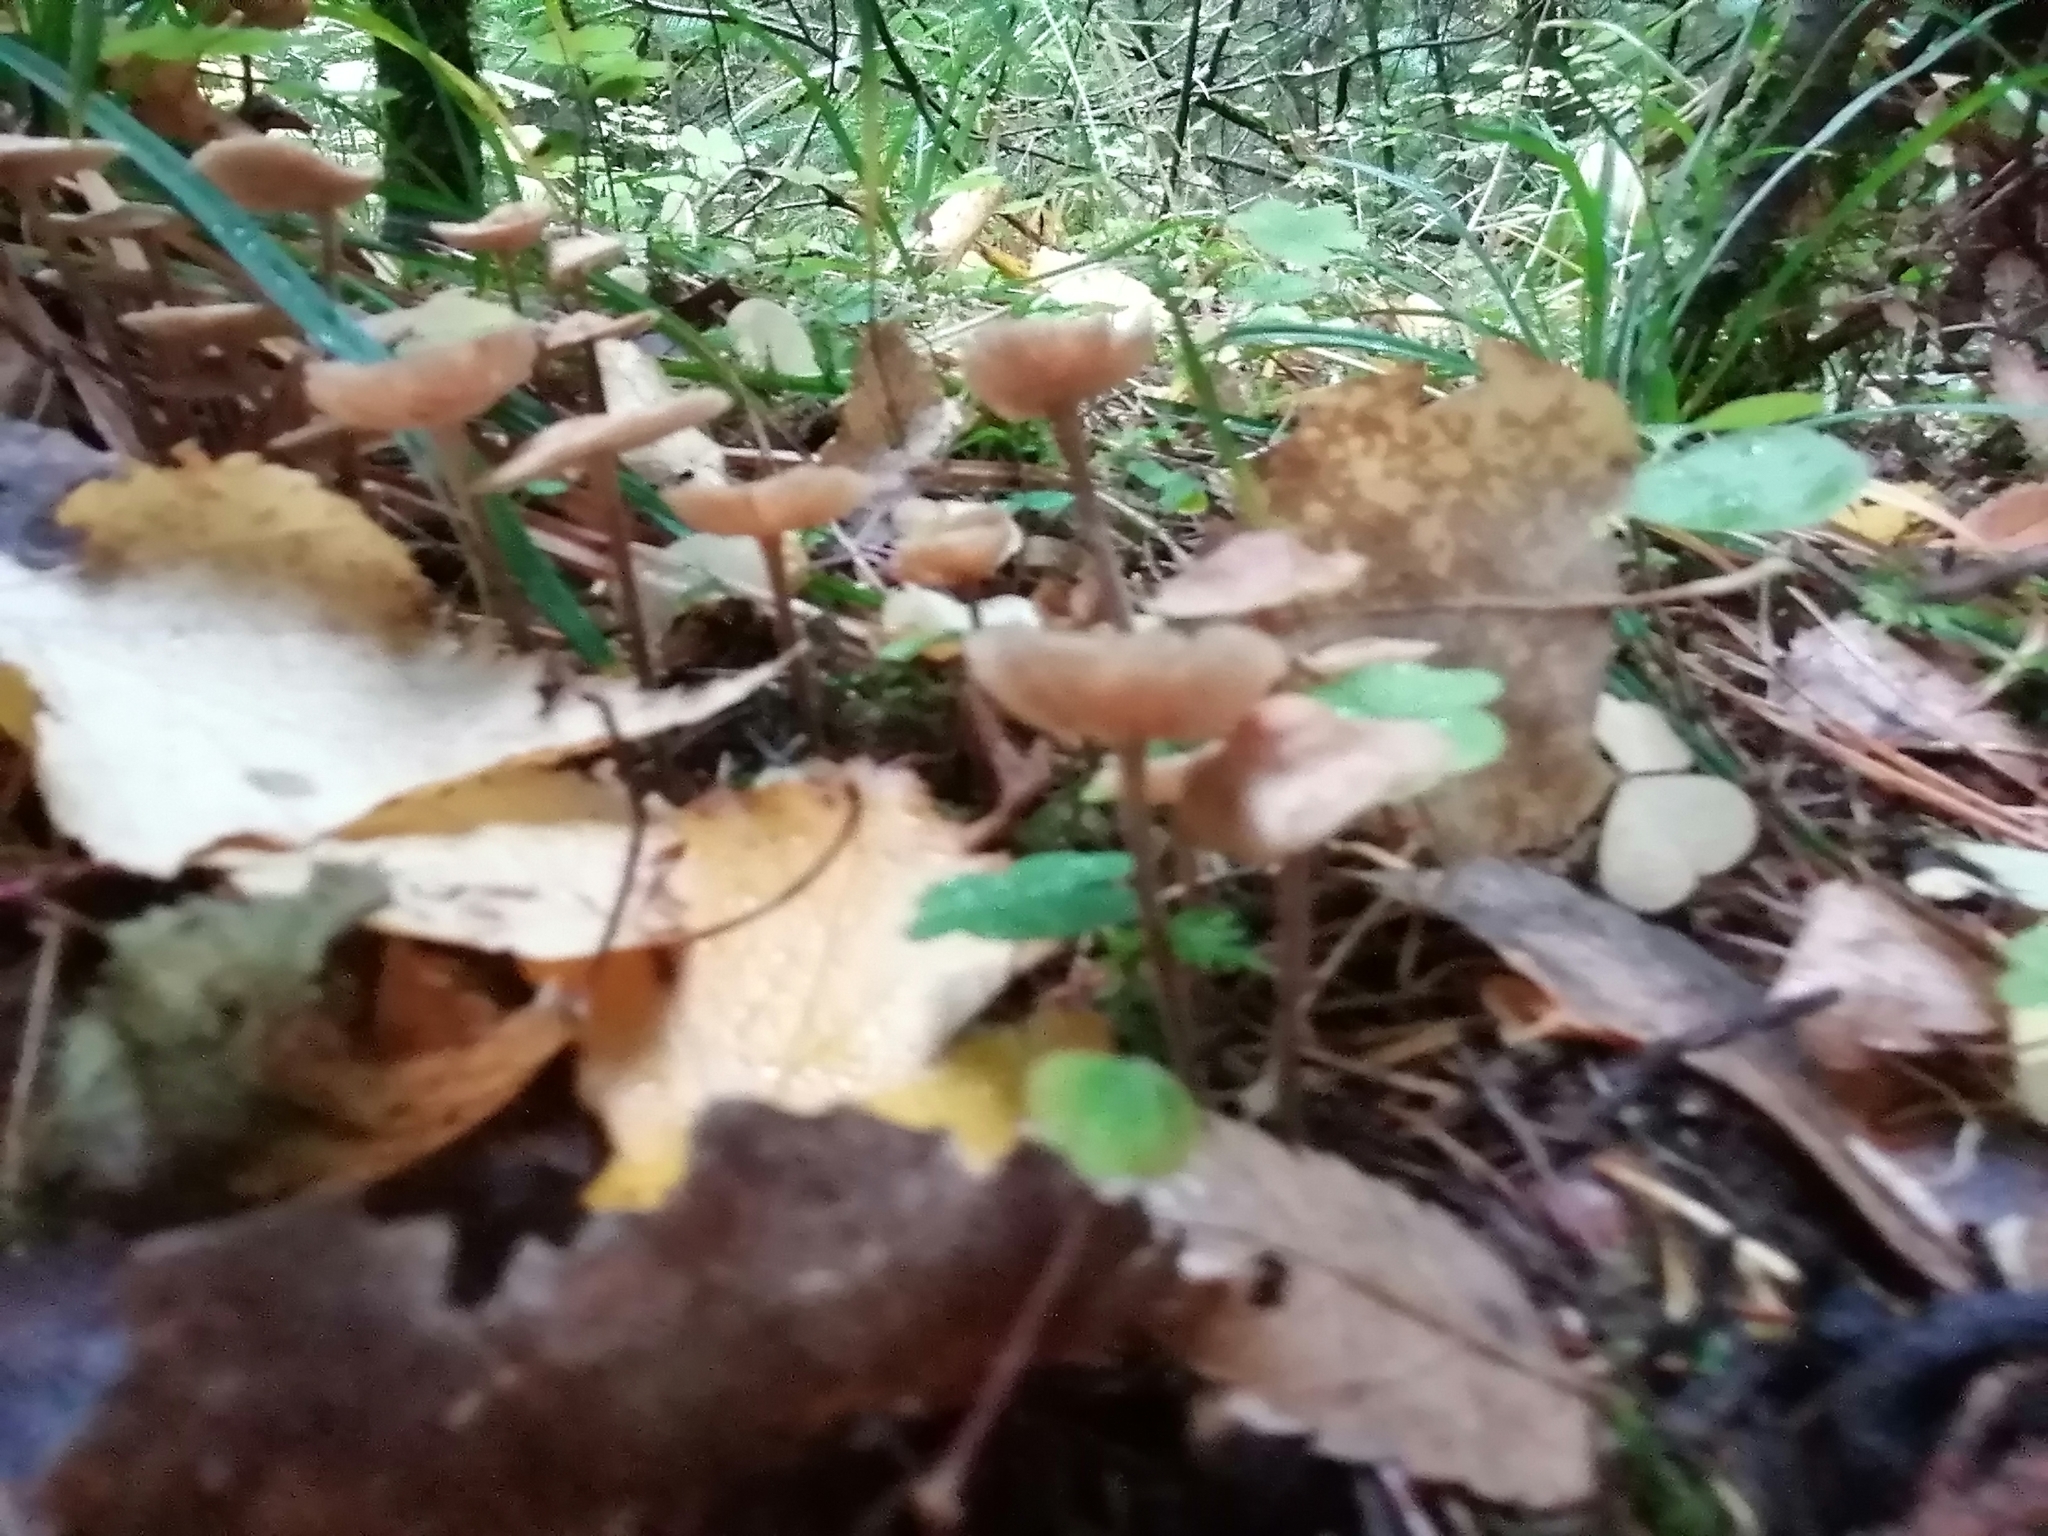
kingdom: Fungi
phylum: Basidiomycota
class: Agaricomycetes
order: Agaricales
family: Omphalotaceae
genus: Paragymnopus
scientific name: Paragymnopus perforans
